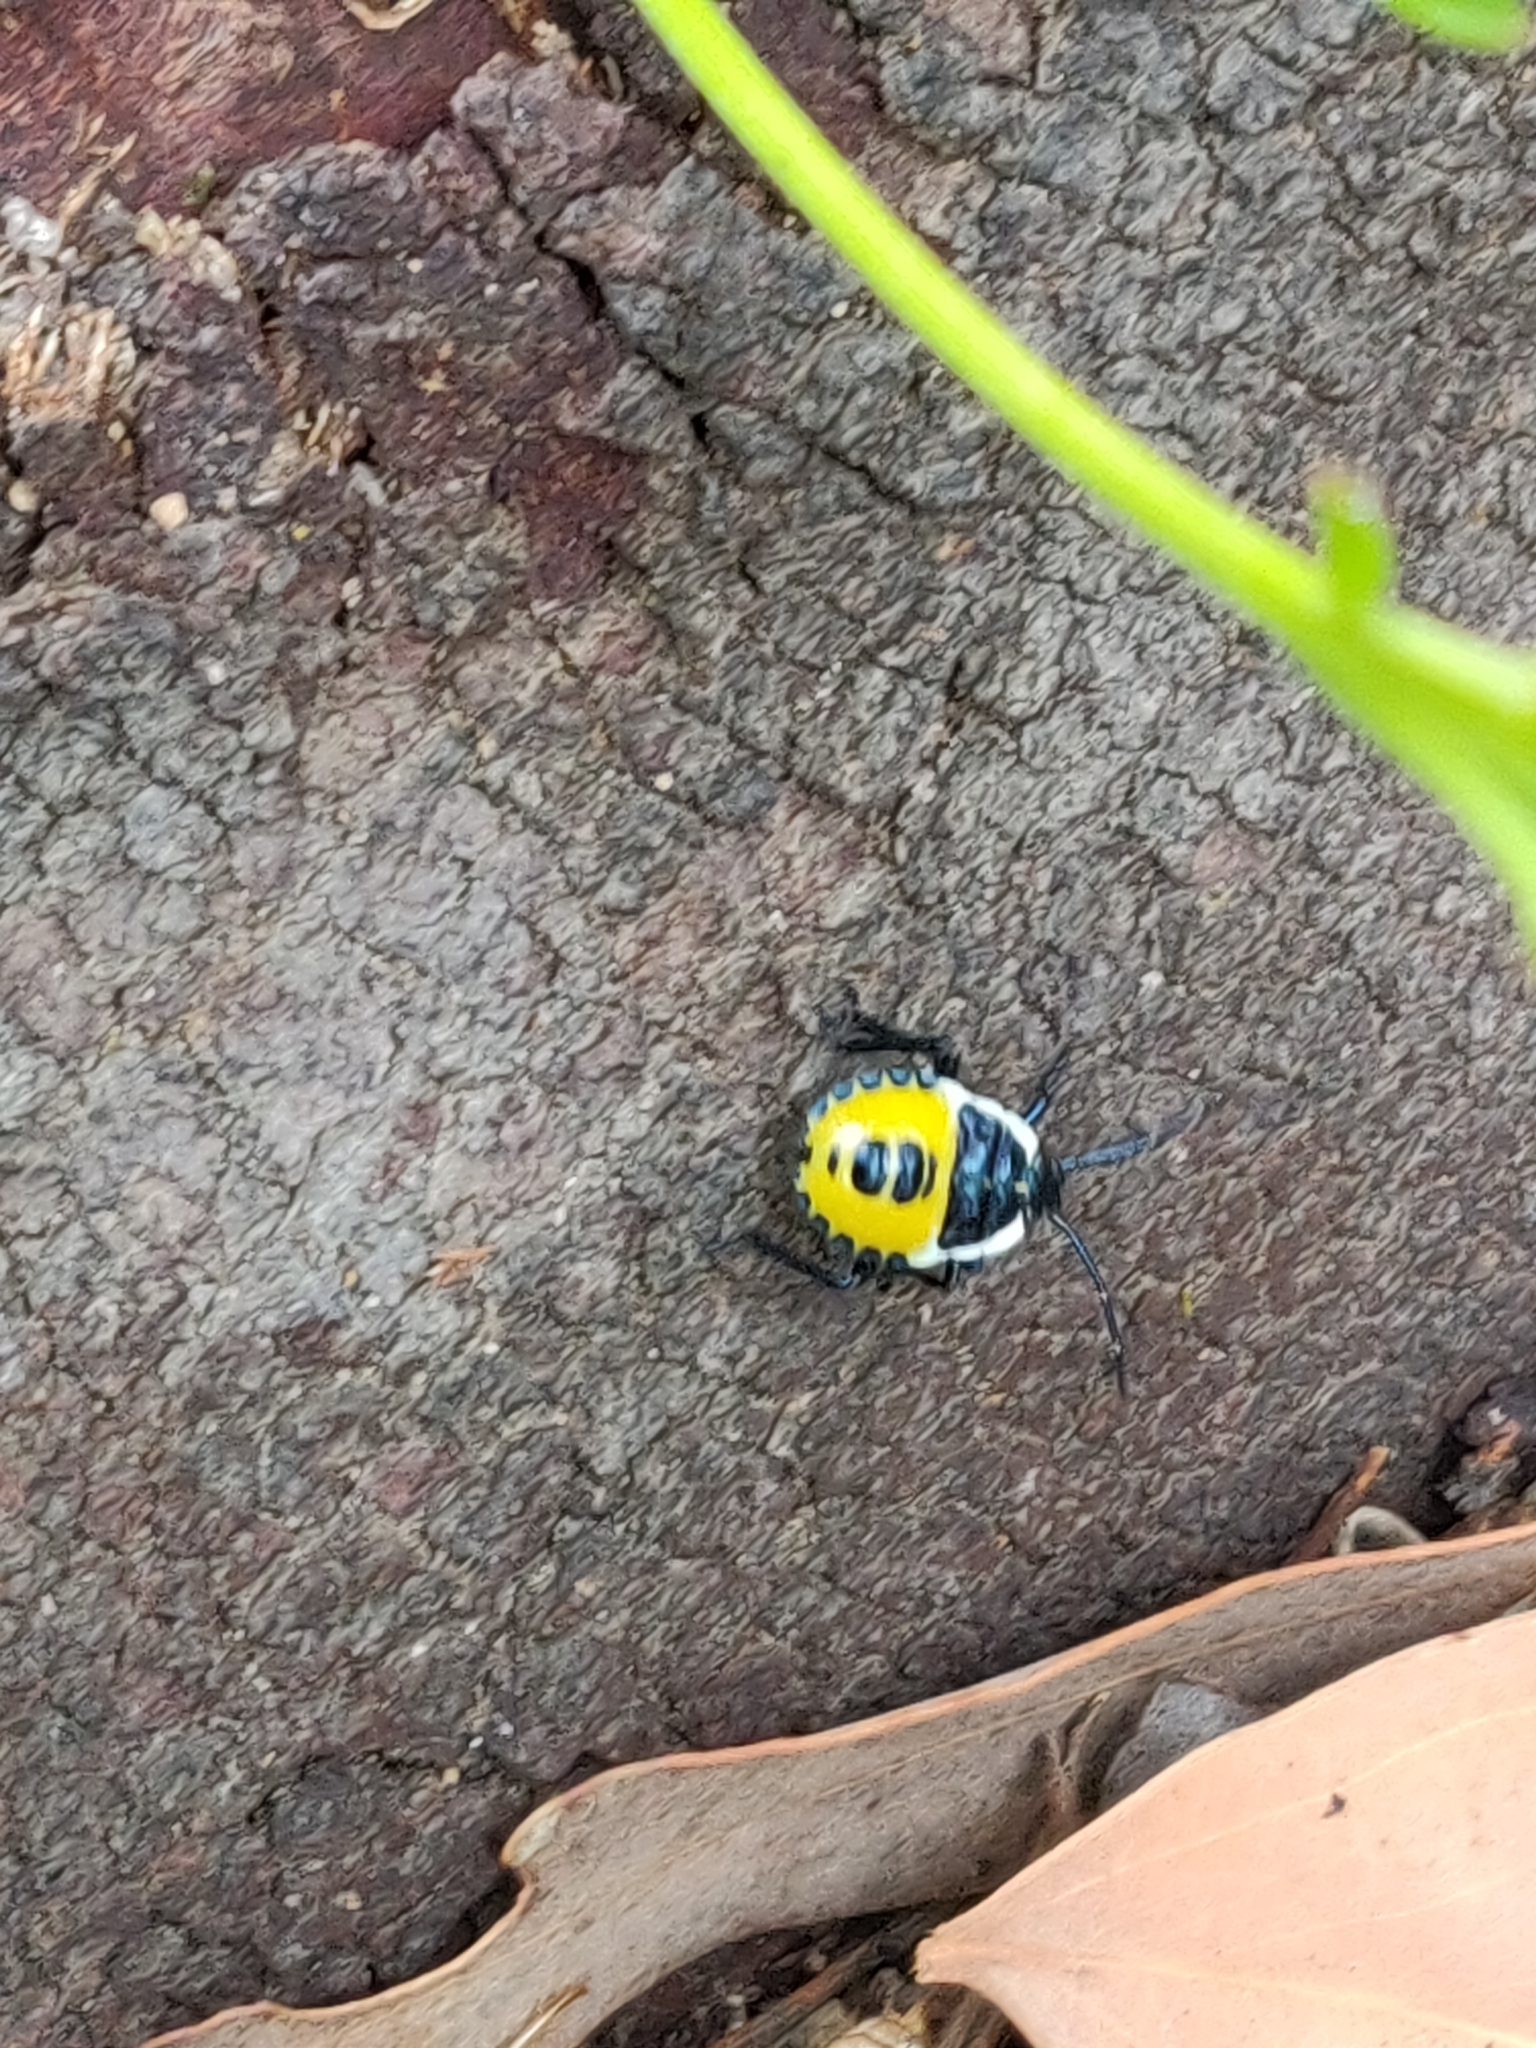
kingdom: Animalia
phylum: Arthropoda
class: Insecta
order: Hemiptera
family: Pentatomidae
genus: Commius
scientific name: Commius
